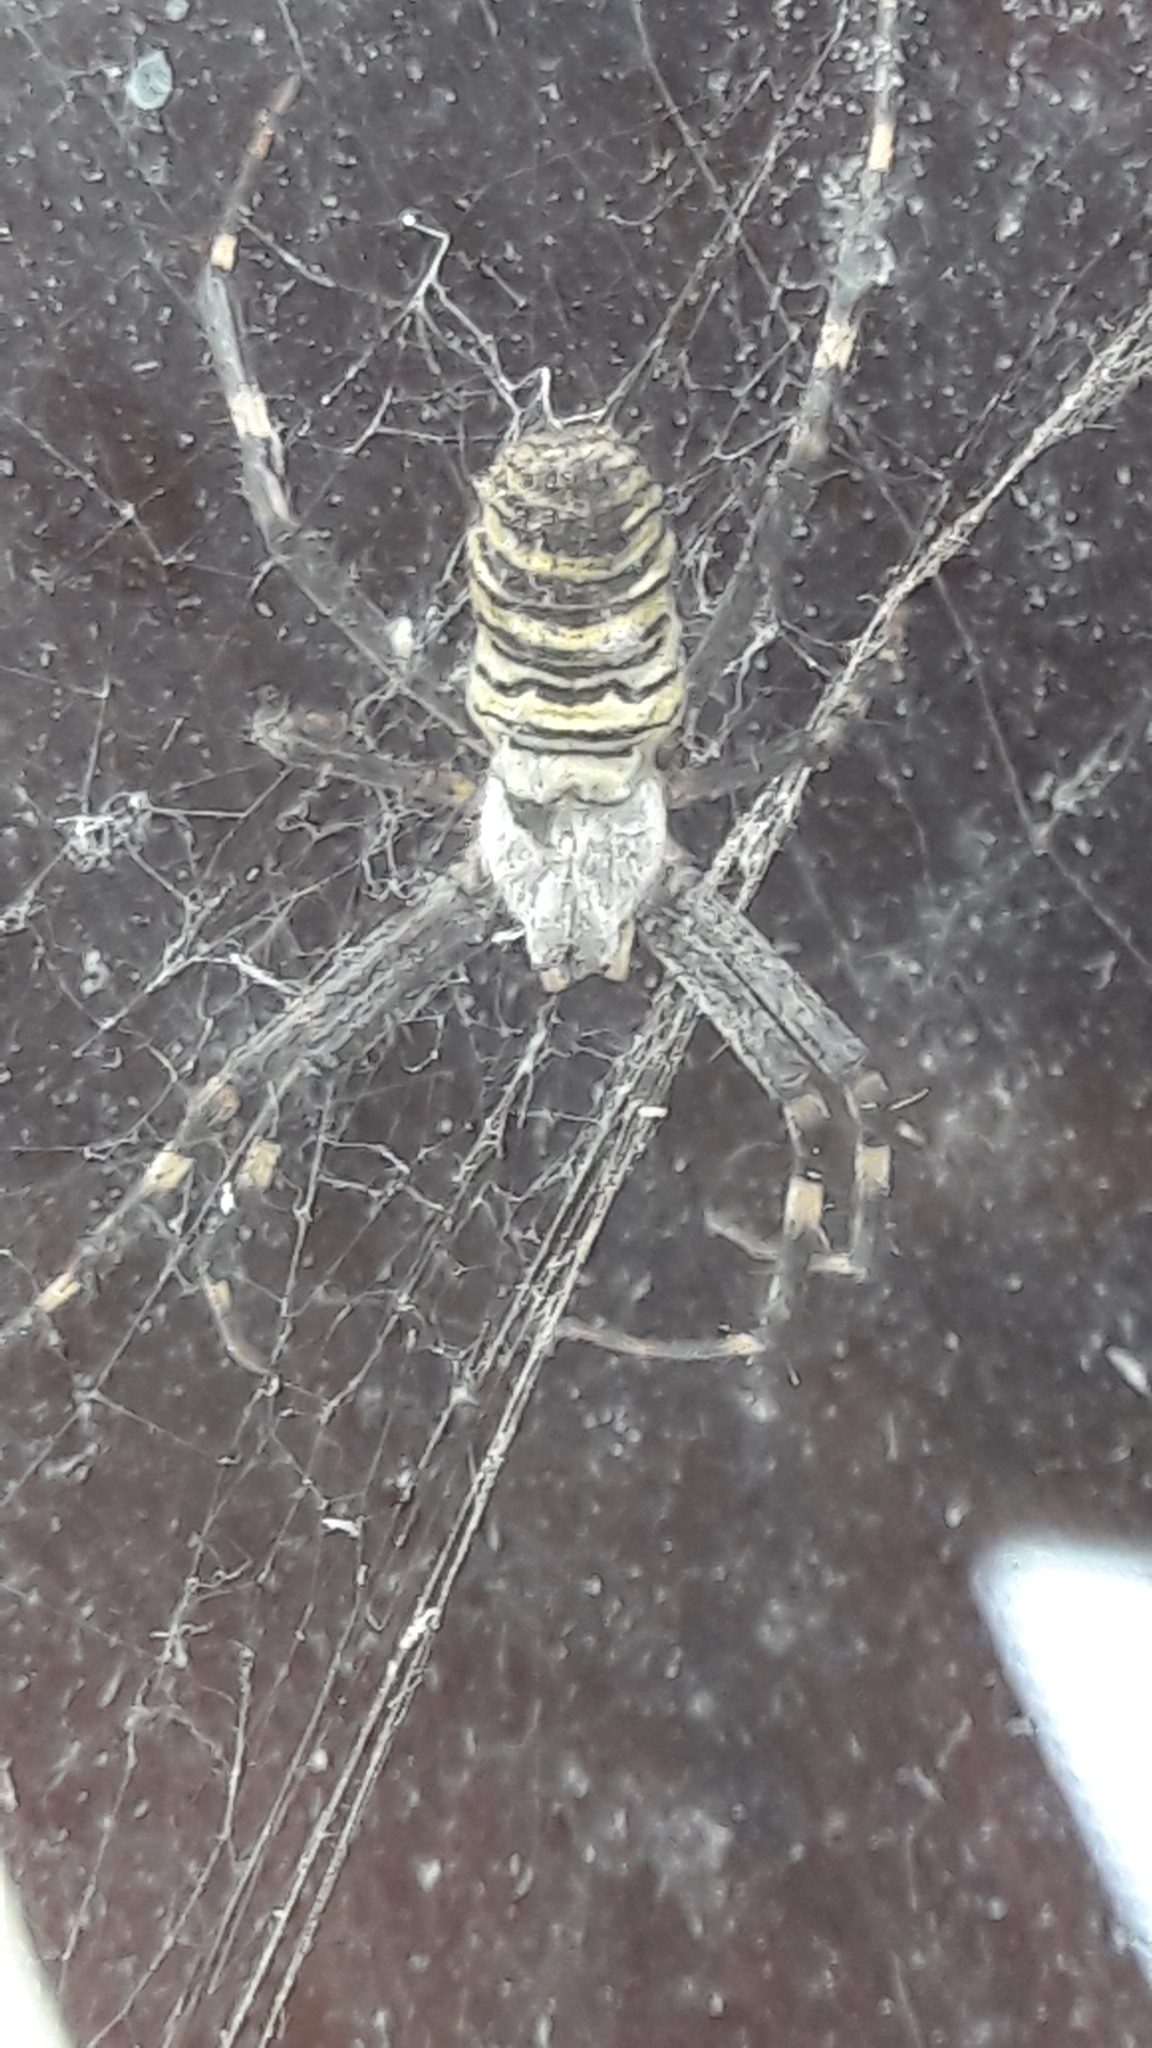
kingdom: Animalia
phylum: Arthropoda
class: Arachnida
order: Araneae
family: Araneidae
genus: Argiope
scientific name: Argiope bruennichi
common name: Wasp spider
